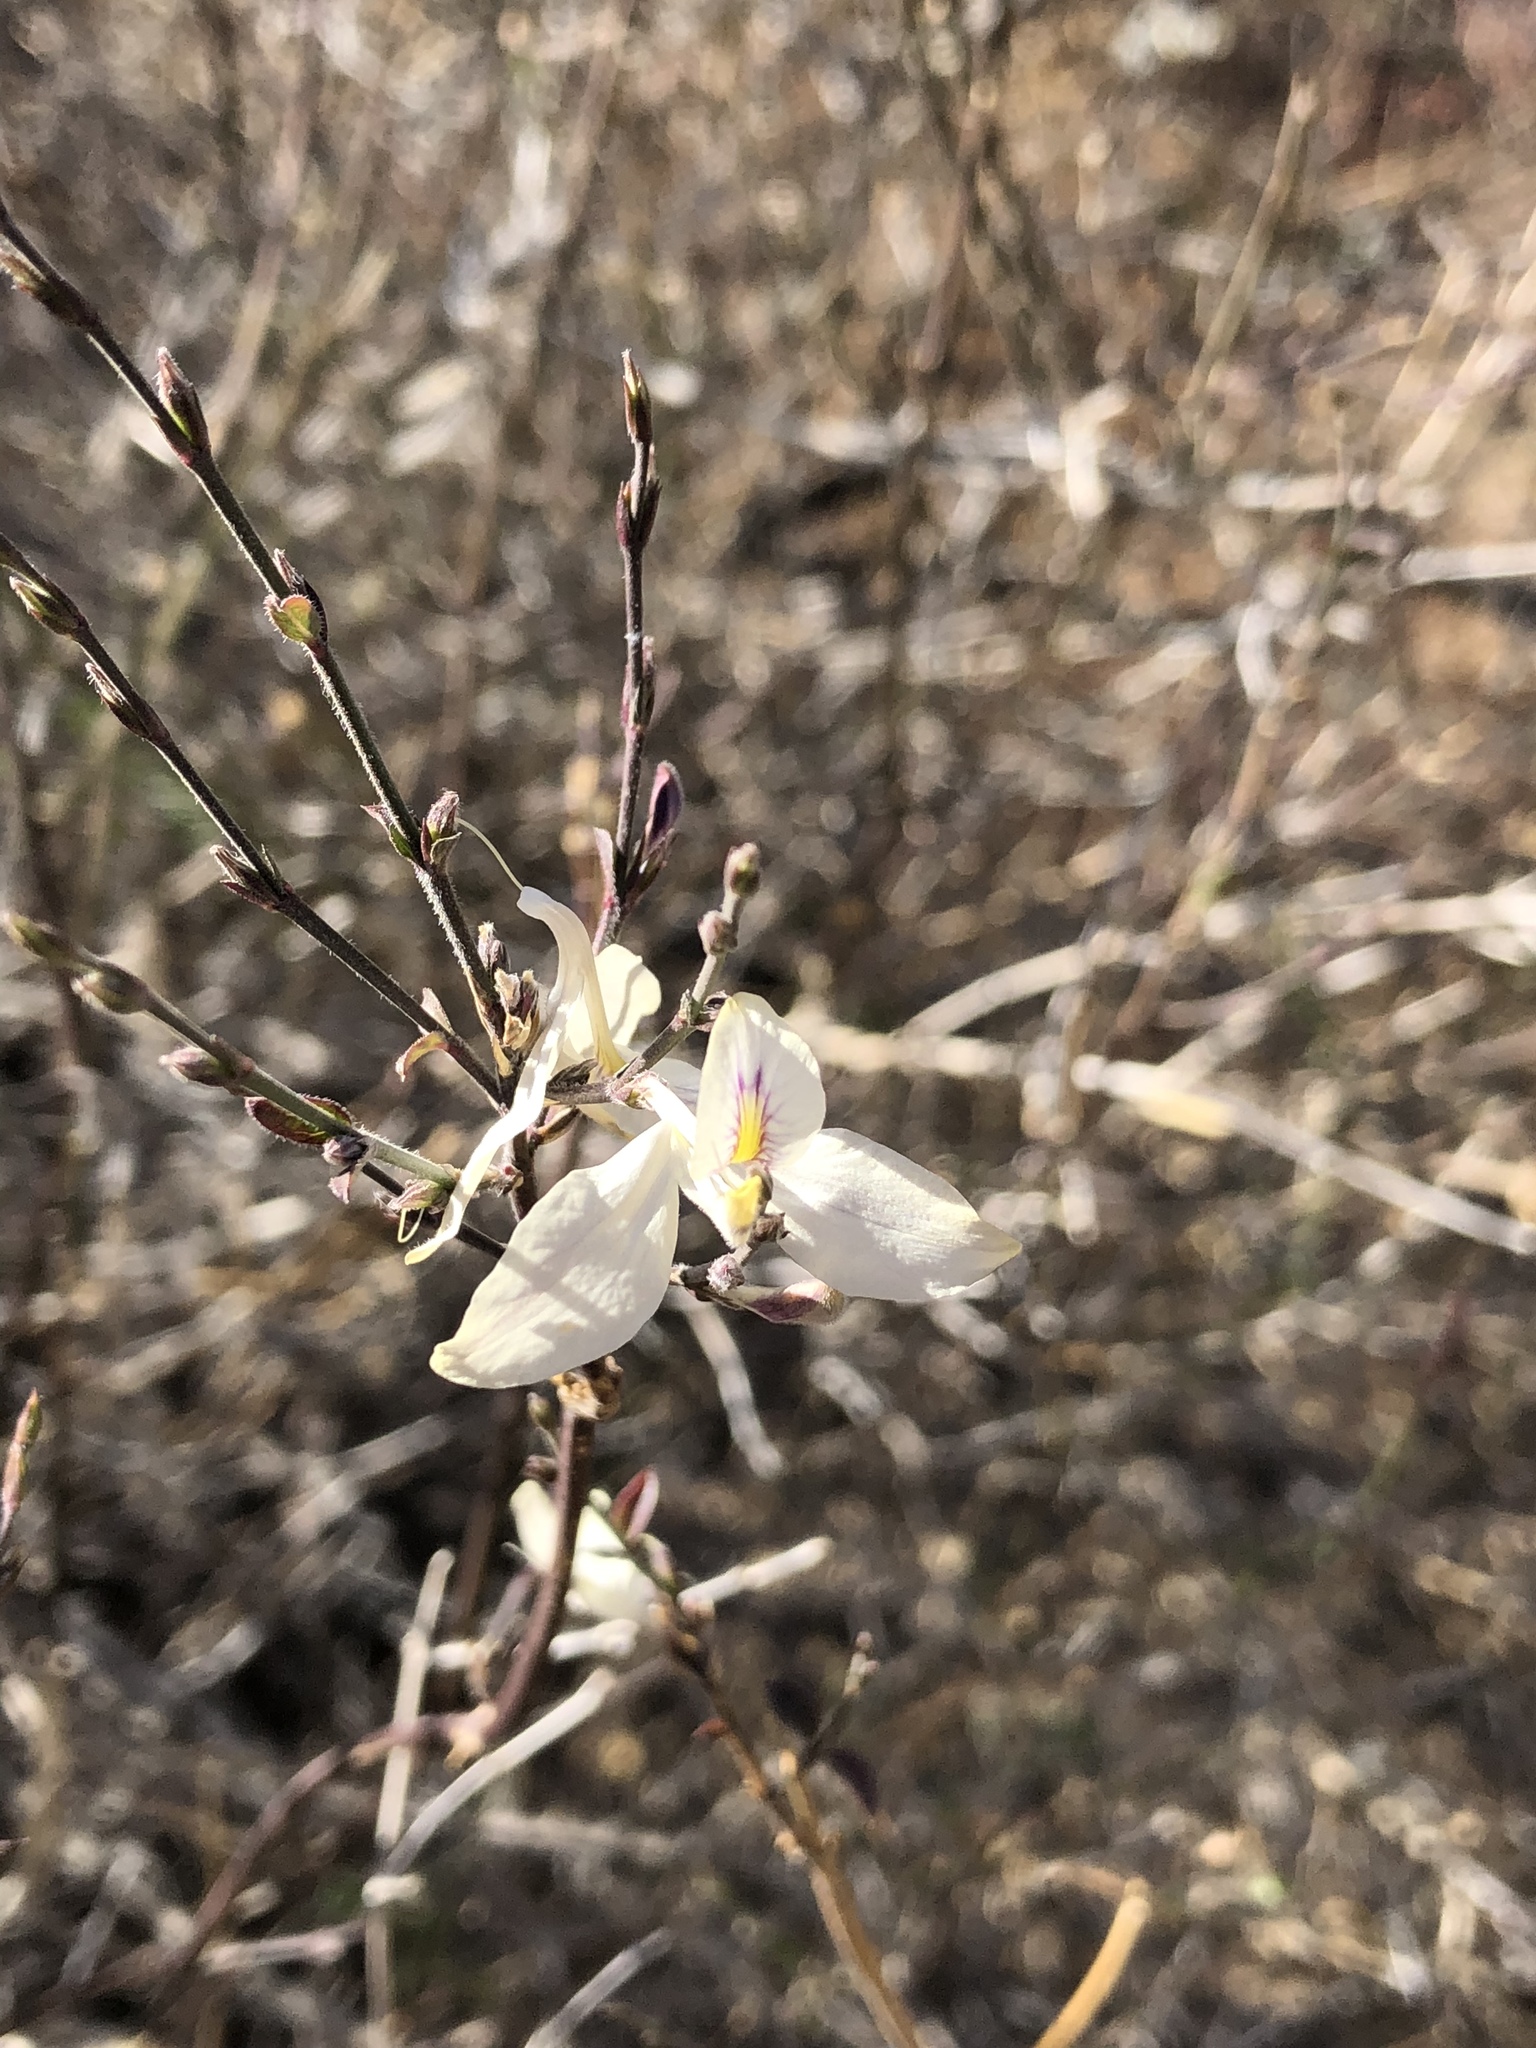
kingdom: Plantae
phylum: Tracheophyta
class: Magnoliopsida
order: Lamiales
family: Acanthaceae
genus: Carlowrightia
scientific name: Carlowrightia arizonica
